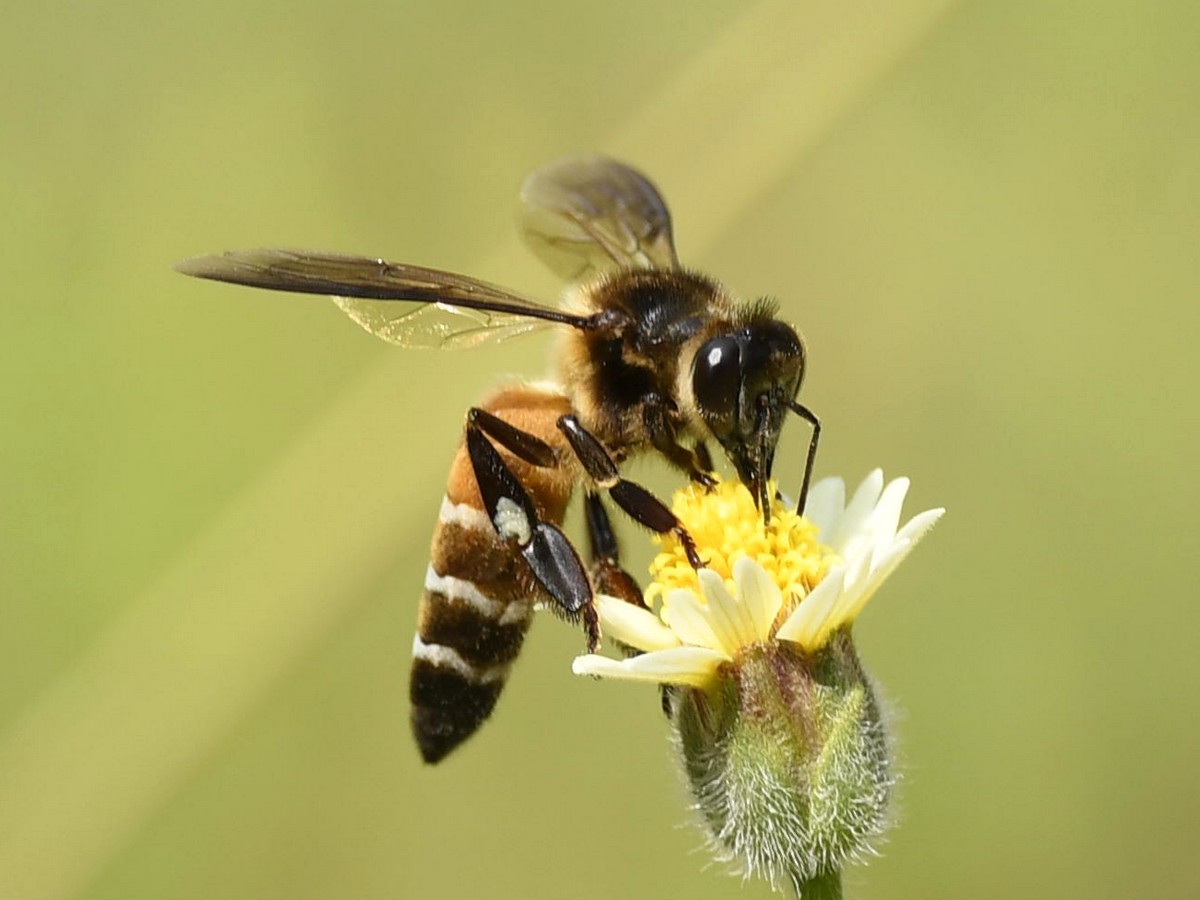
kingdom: Animalia
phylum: Arthropoda
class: Insecta
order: Hymenoptera
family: Apidae
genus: Apis
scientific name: Apis dorsata
